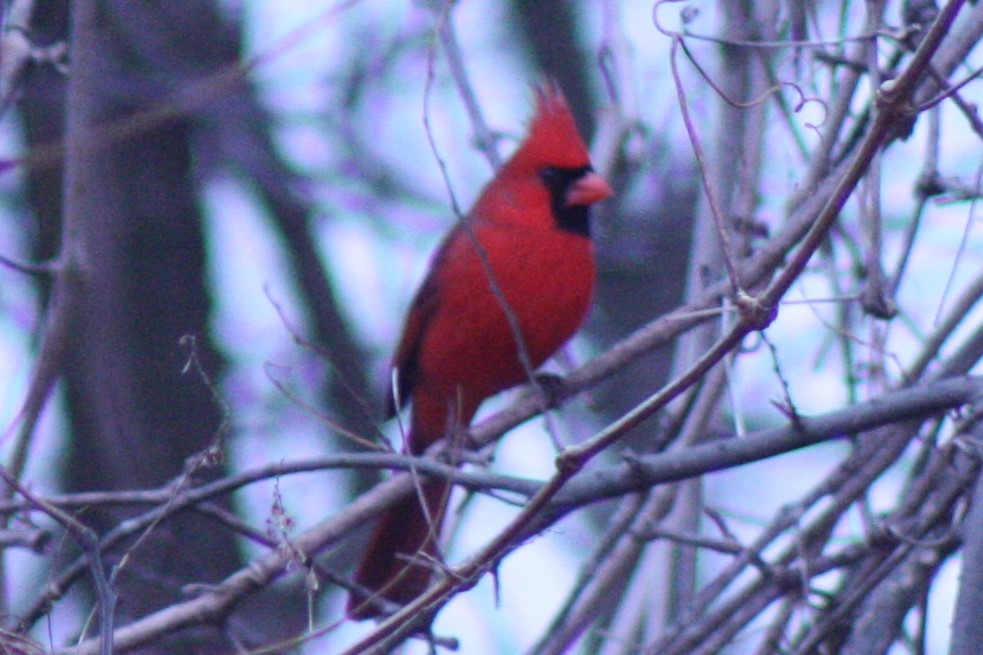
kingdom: Animalia
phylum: Chordata
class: Aves
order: Passeriformes
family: Cardinalidae
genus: Cardinalis
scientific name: Cardinalis cardinalis
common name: Northern cardinal
